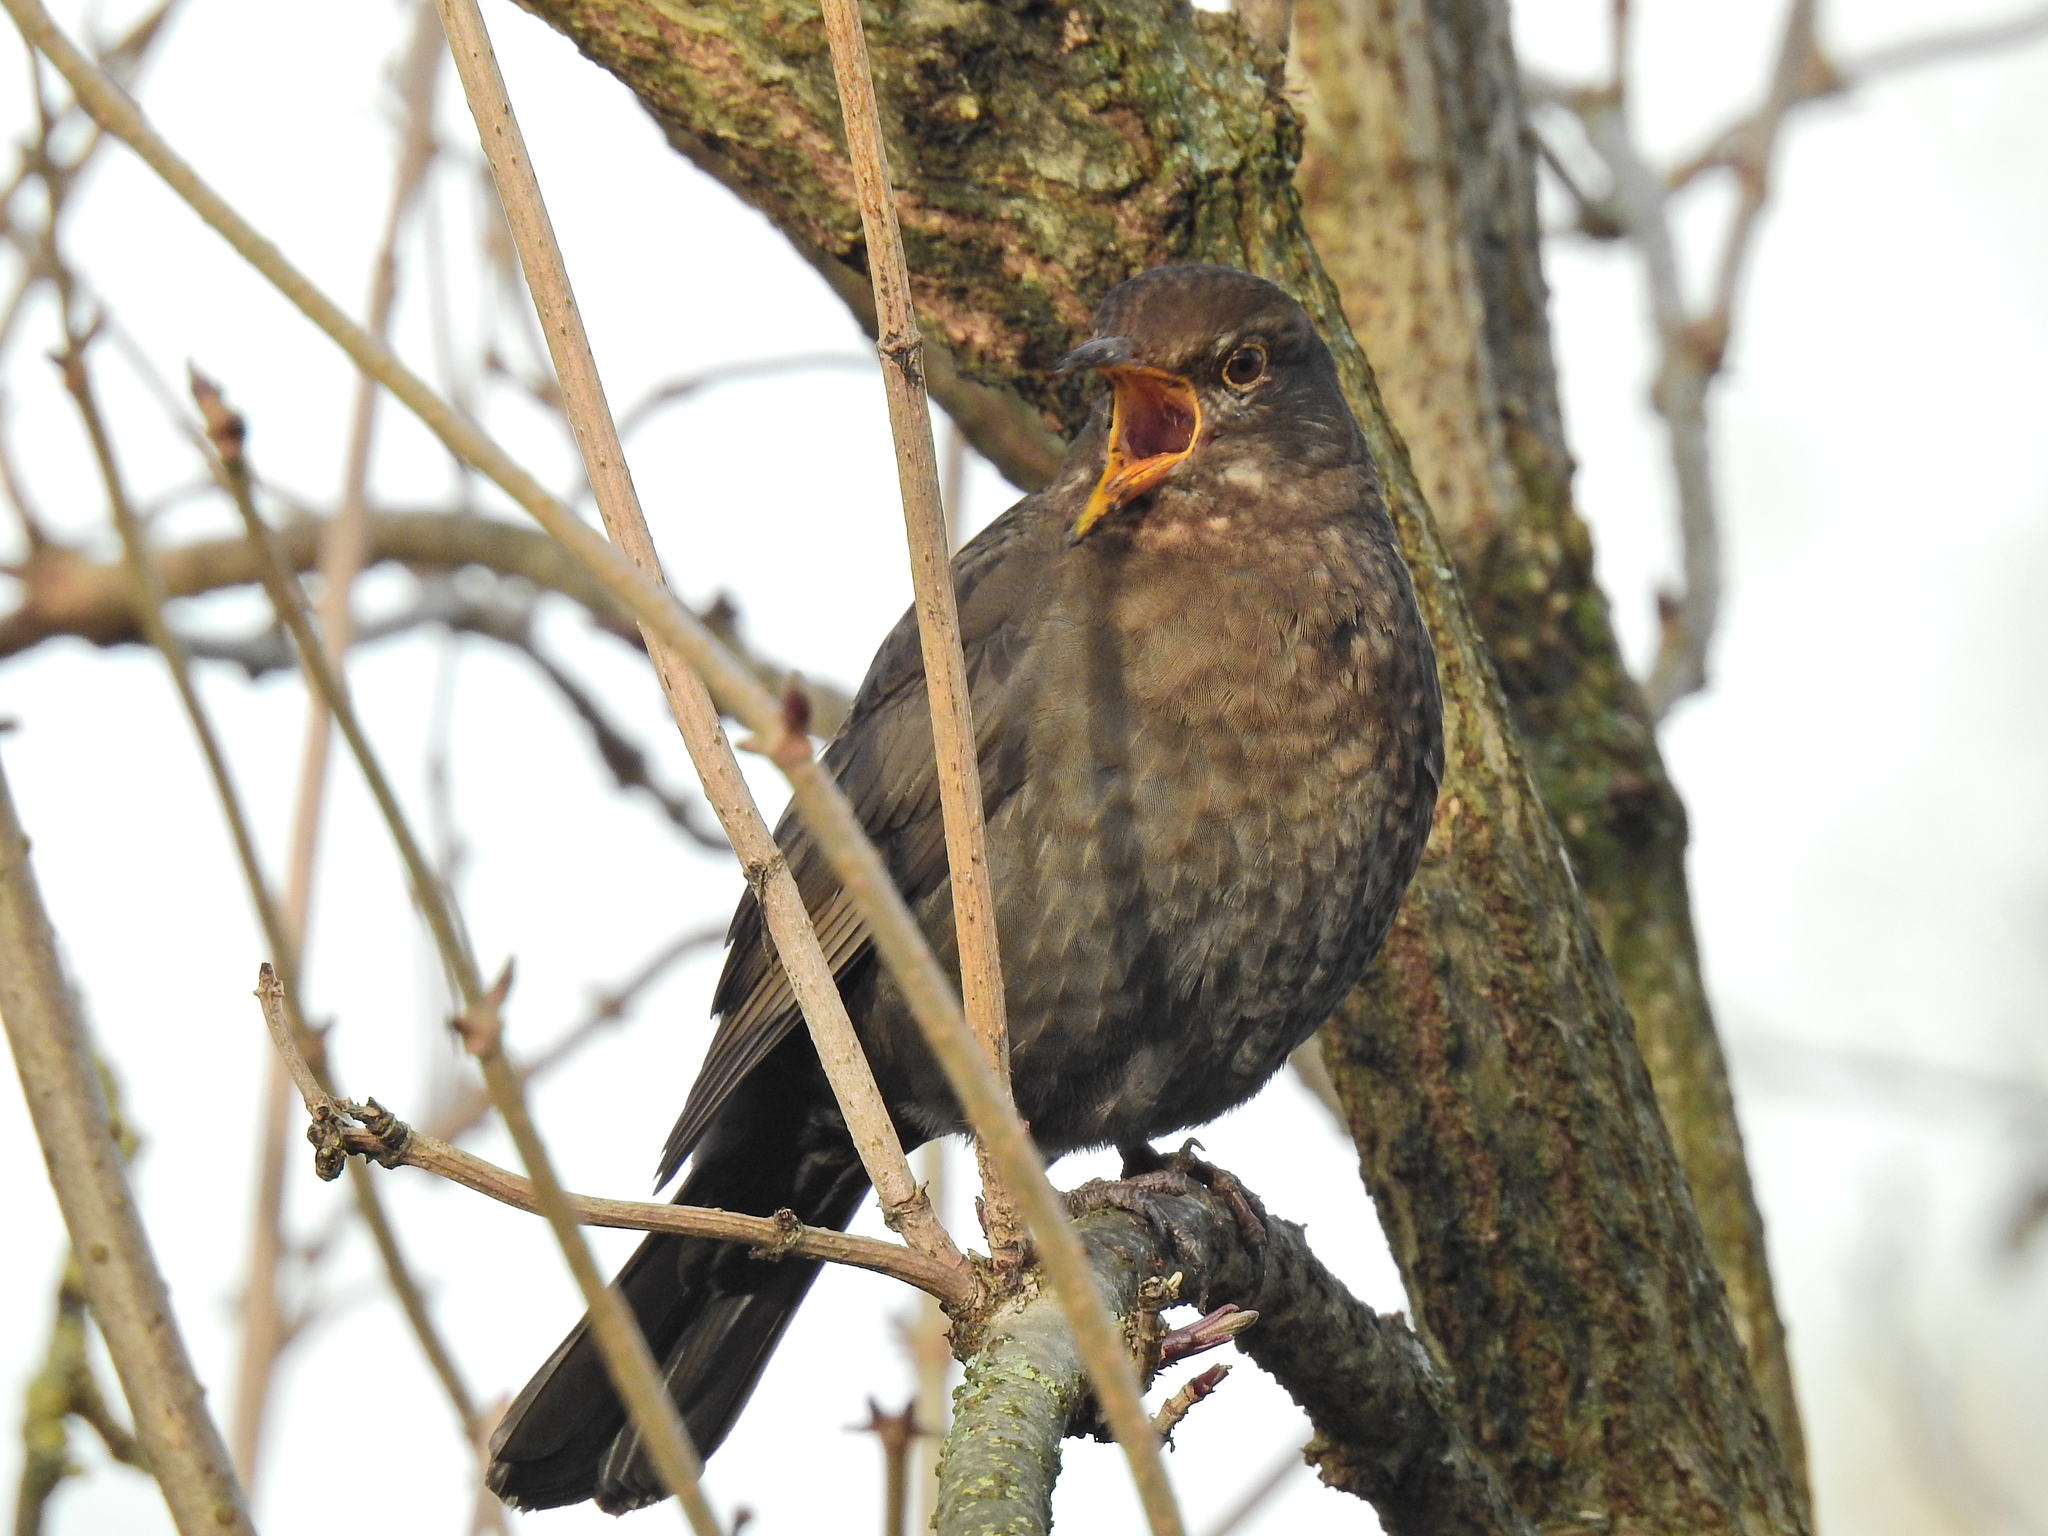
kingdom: Animalia
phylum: Chordata
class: Aves
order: Passeriformes
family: Turdidae
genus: Turdus
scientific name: Turdus merula
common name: Common blackbird
